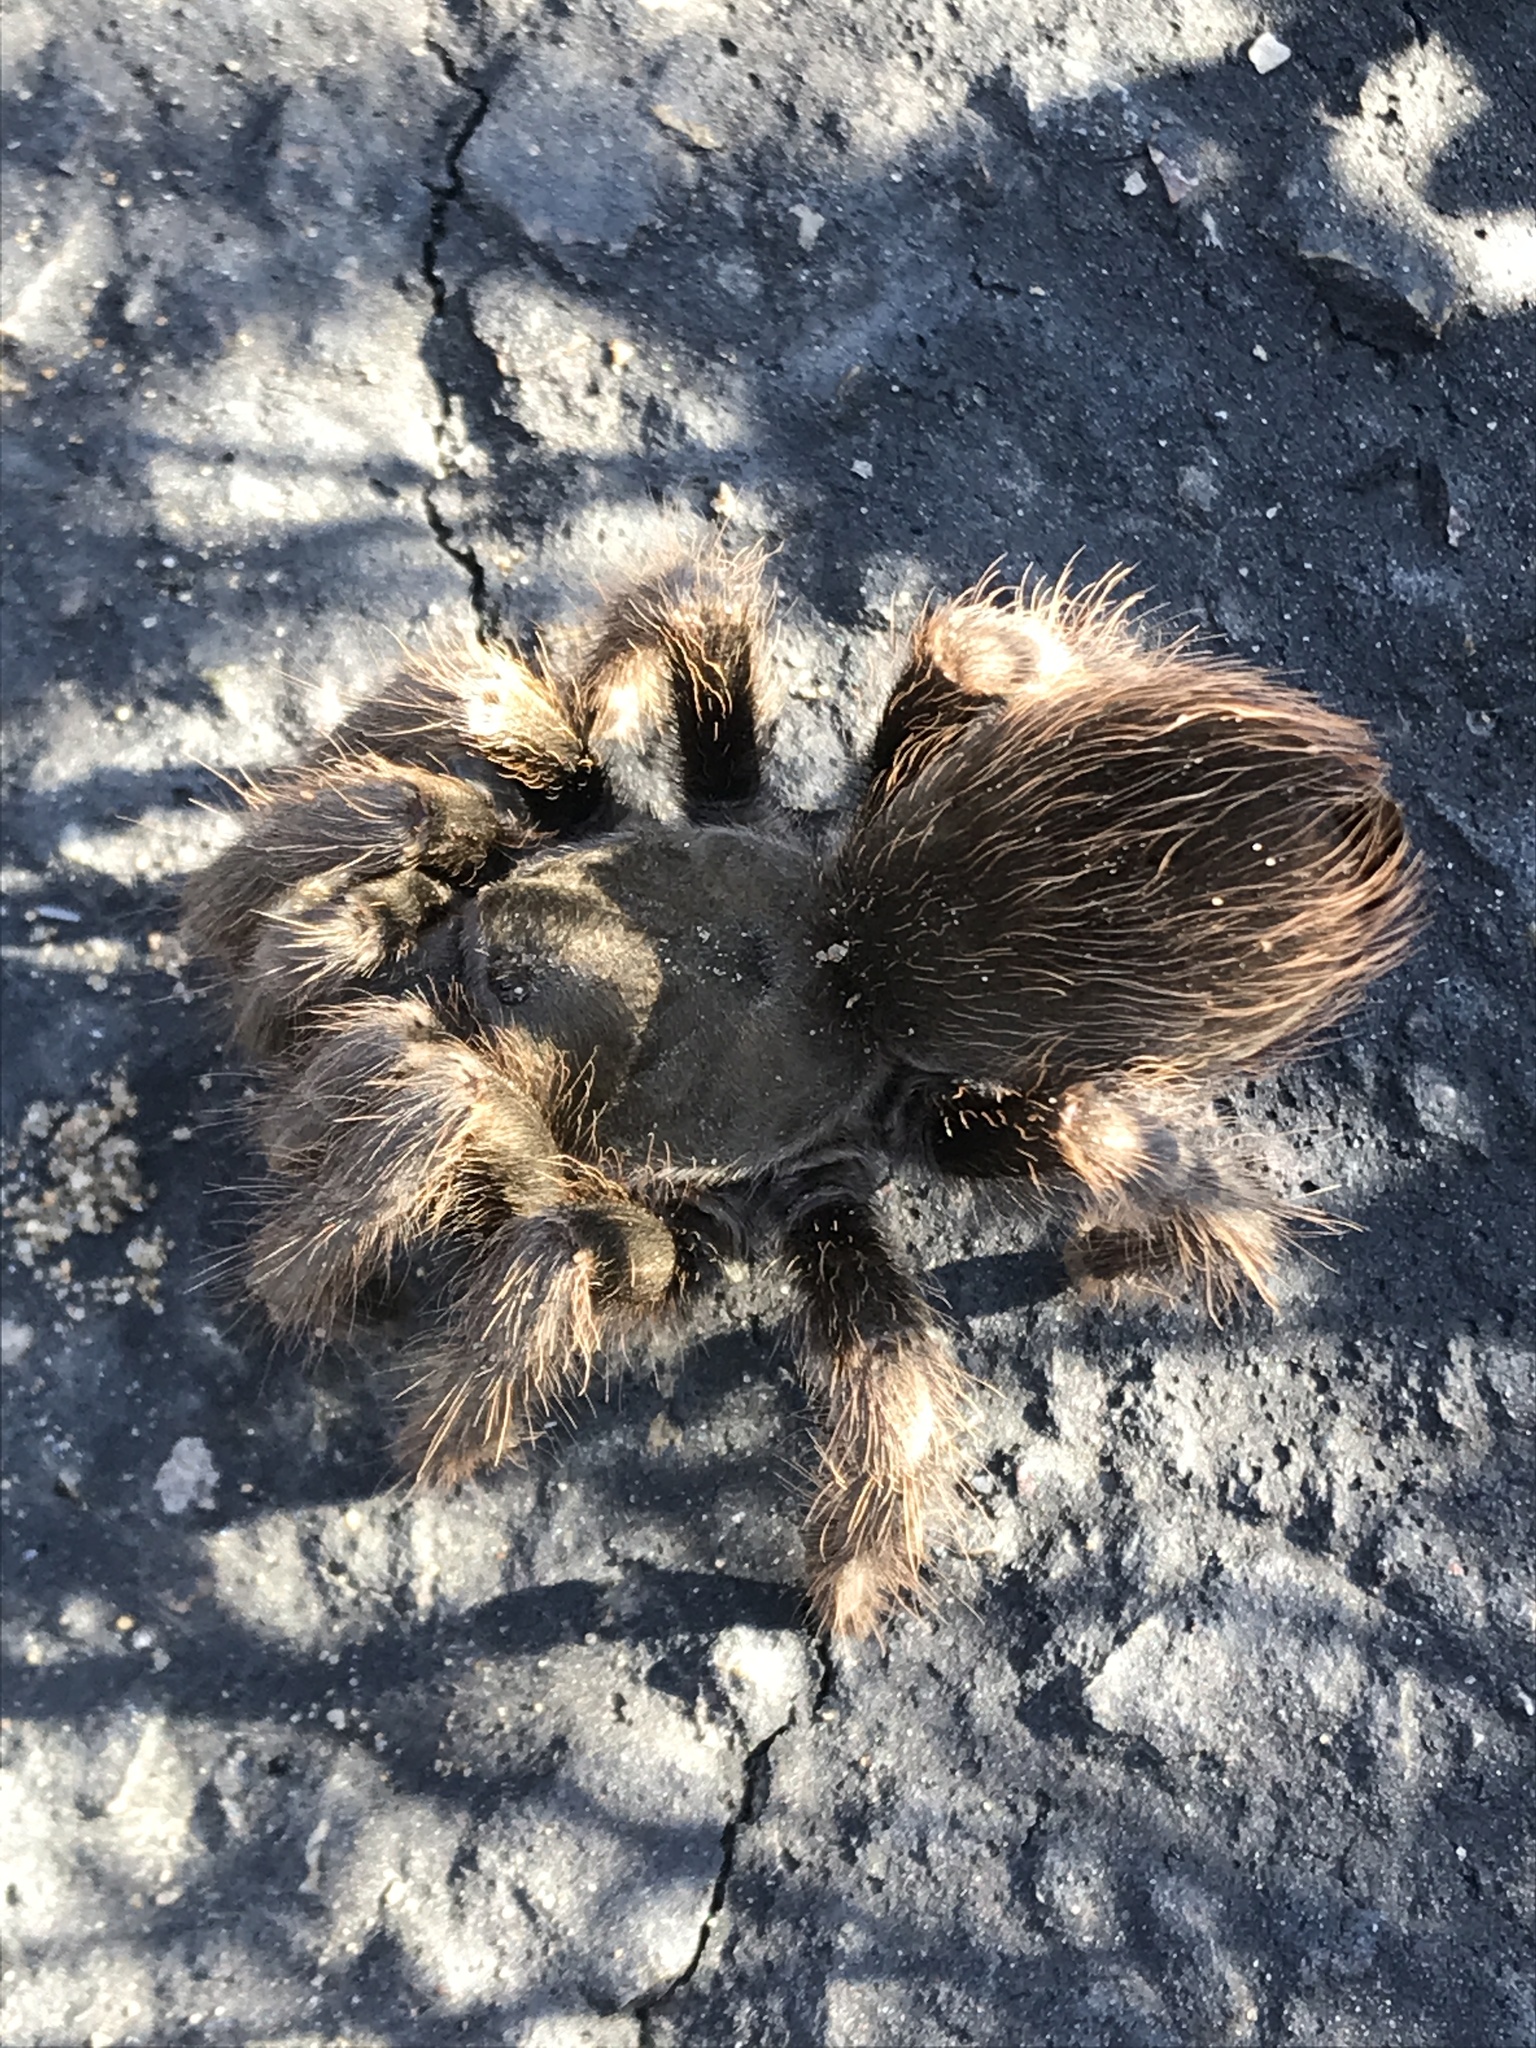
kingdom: Animalia
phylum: Arthropoda
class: Arachnida
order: Araneae
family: Theraphosidae
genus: Aphonopelma
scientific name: Aphonopelma steindachneri
